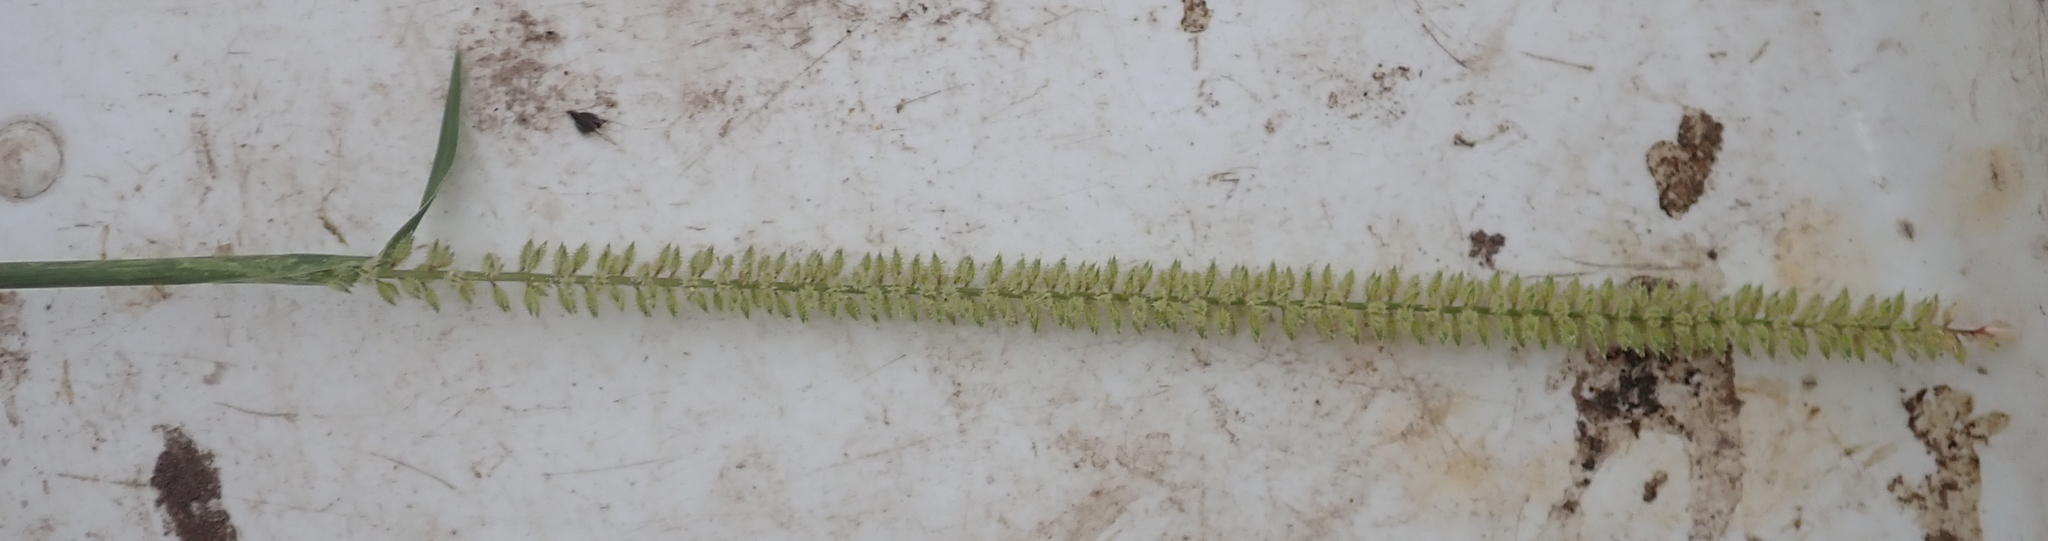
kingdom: Plantae
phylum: Tracheophyta
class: Liliopsida
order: Poales
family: Poaceae
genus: Tragus
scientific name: Tragus berteronianus
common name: African bur-grass
